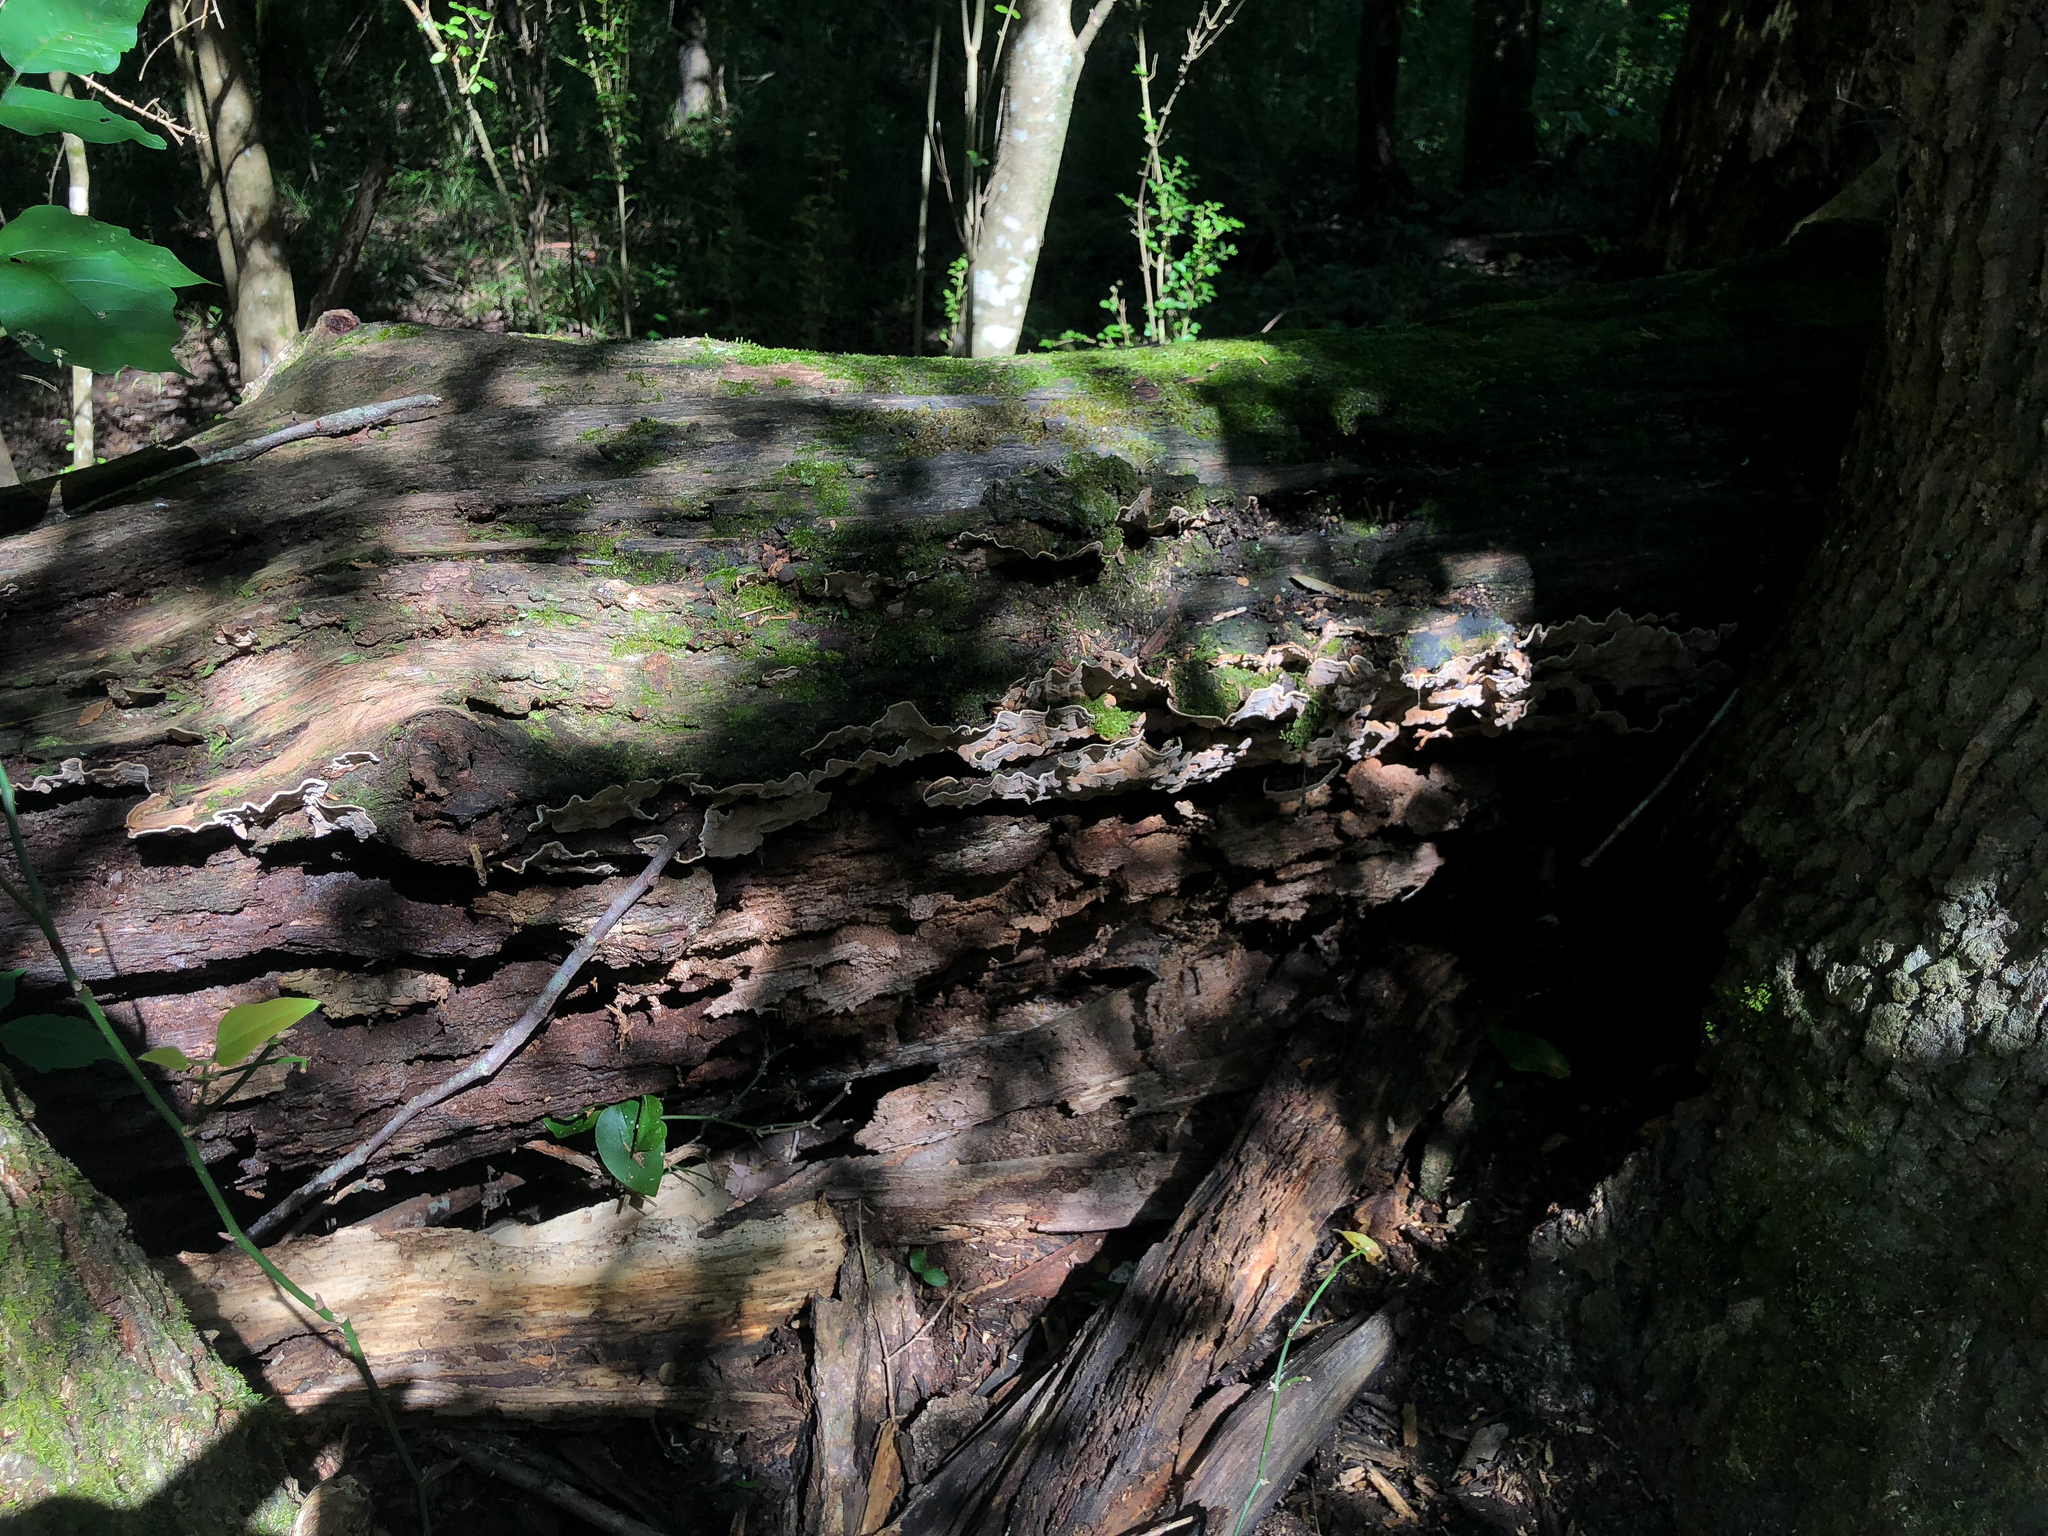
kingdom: Fungi
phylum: Basidiomycota
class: Agaricomycetes
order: Russulales
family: Stereaceae
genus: Xylobolus
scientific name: Xylobolus subpileatus
